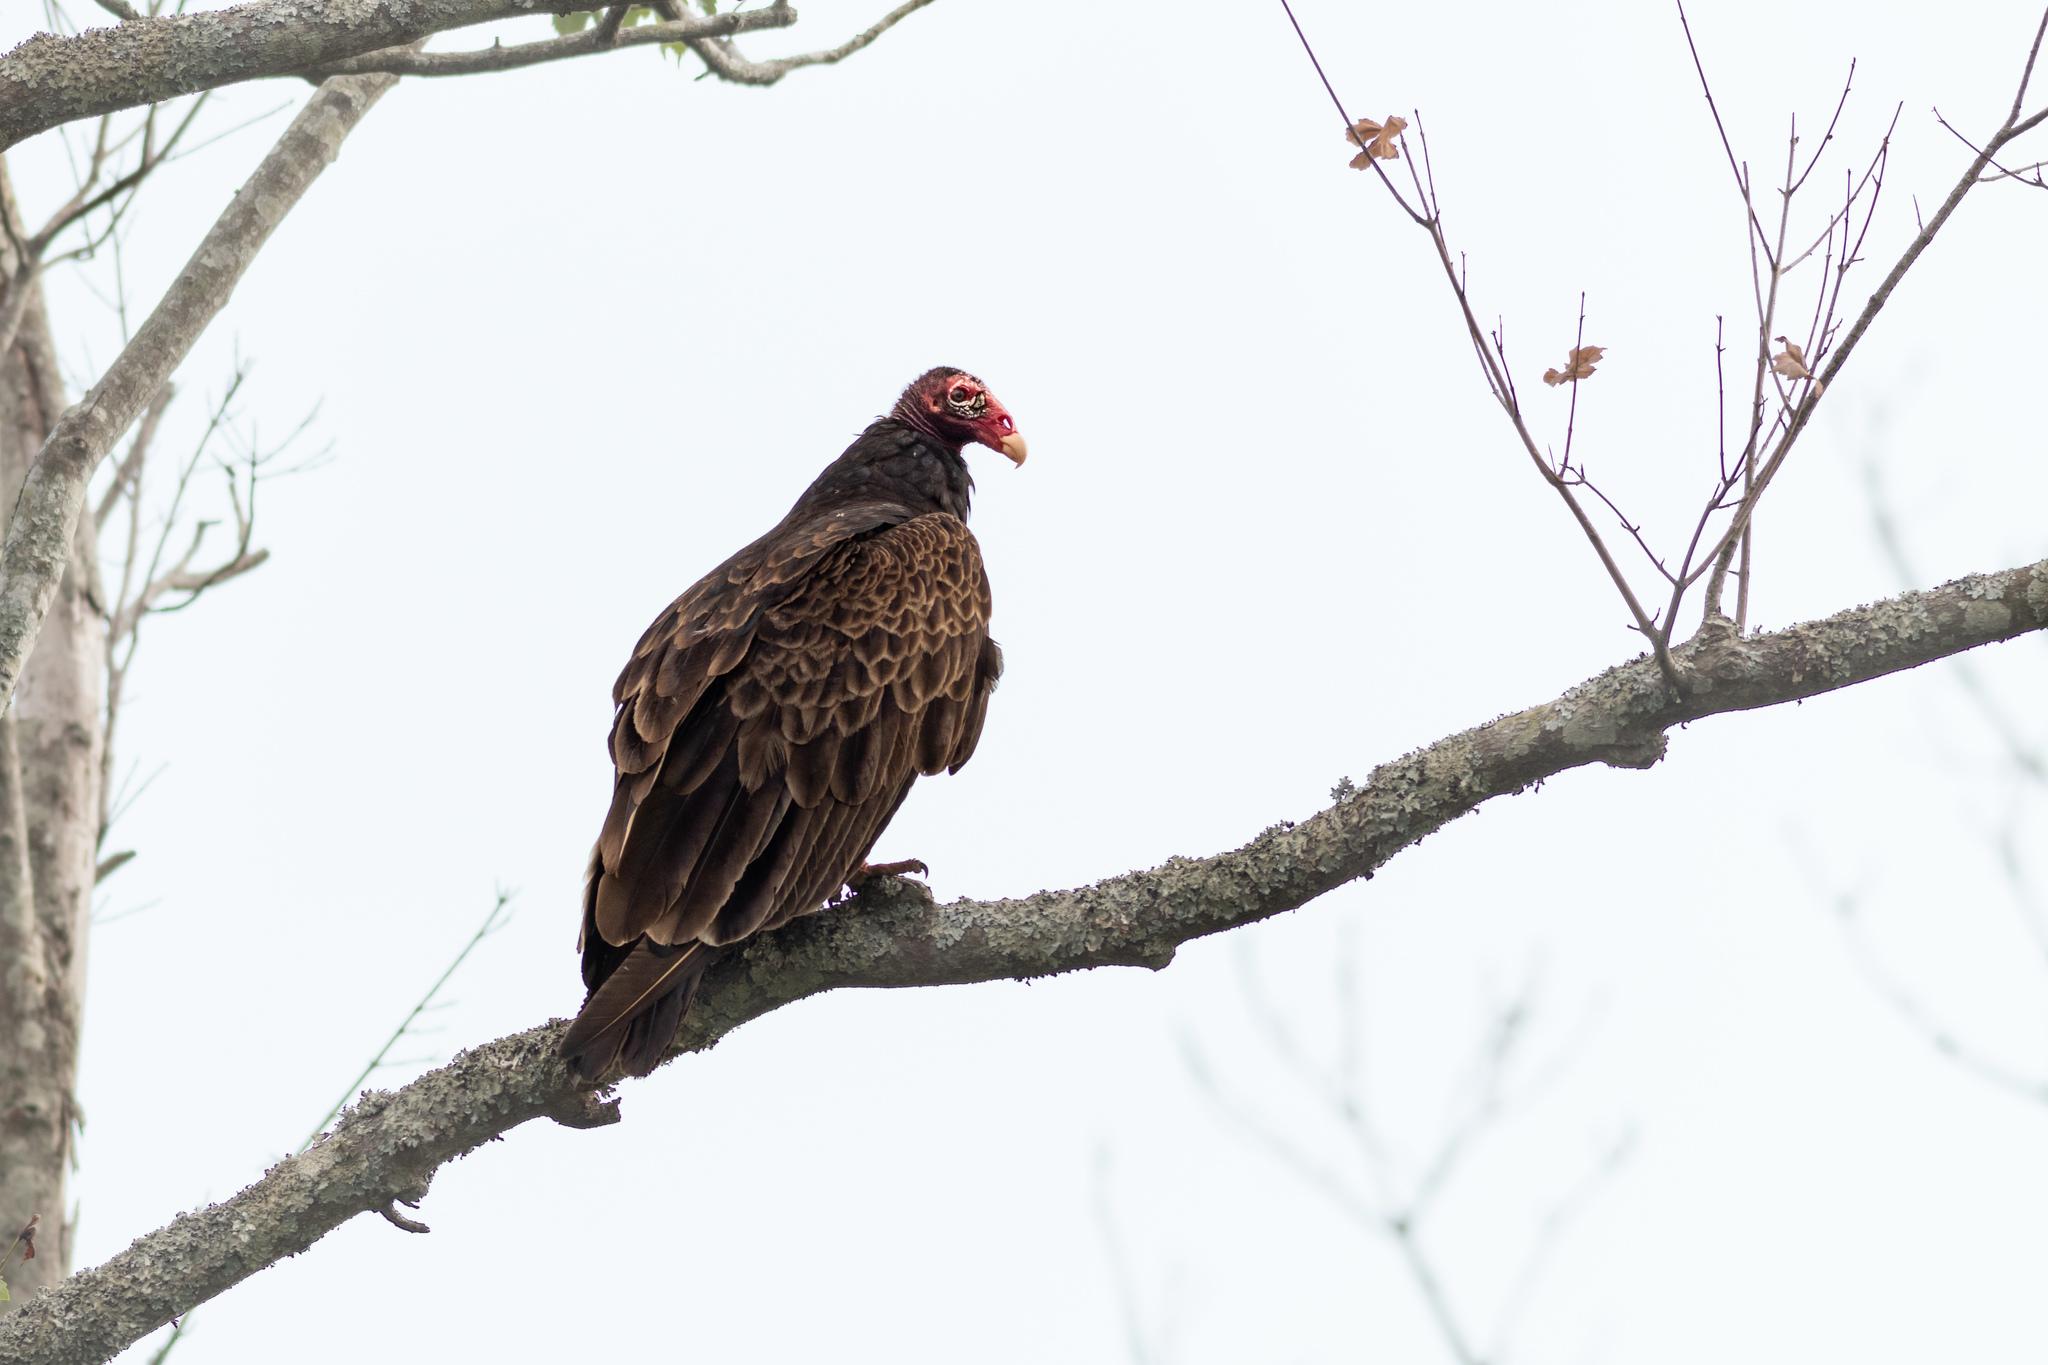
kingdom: Animalia
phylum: Chordata
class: Aves
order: Accipitriformes
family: Cathartidae
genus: Cathartes
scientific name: Cathartes aura
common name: Turkey vulture
